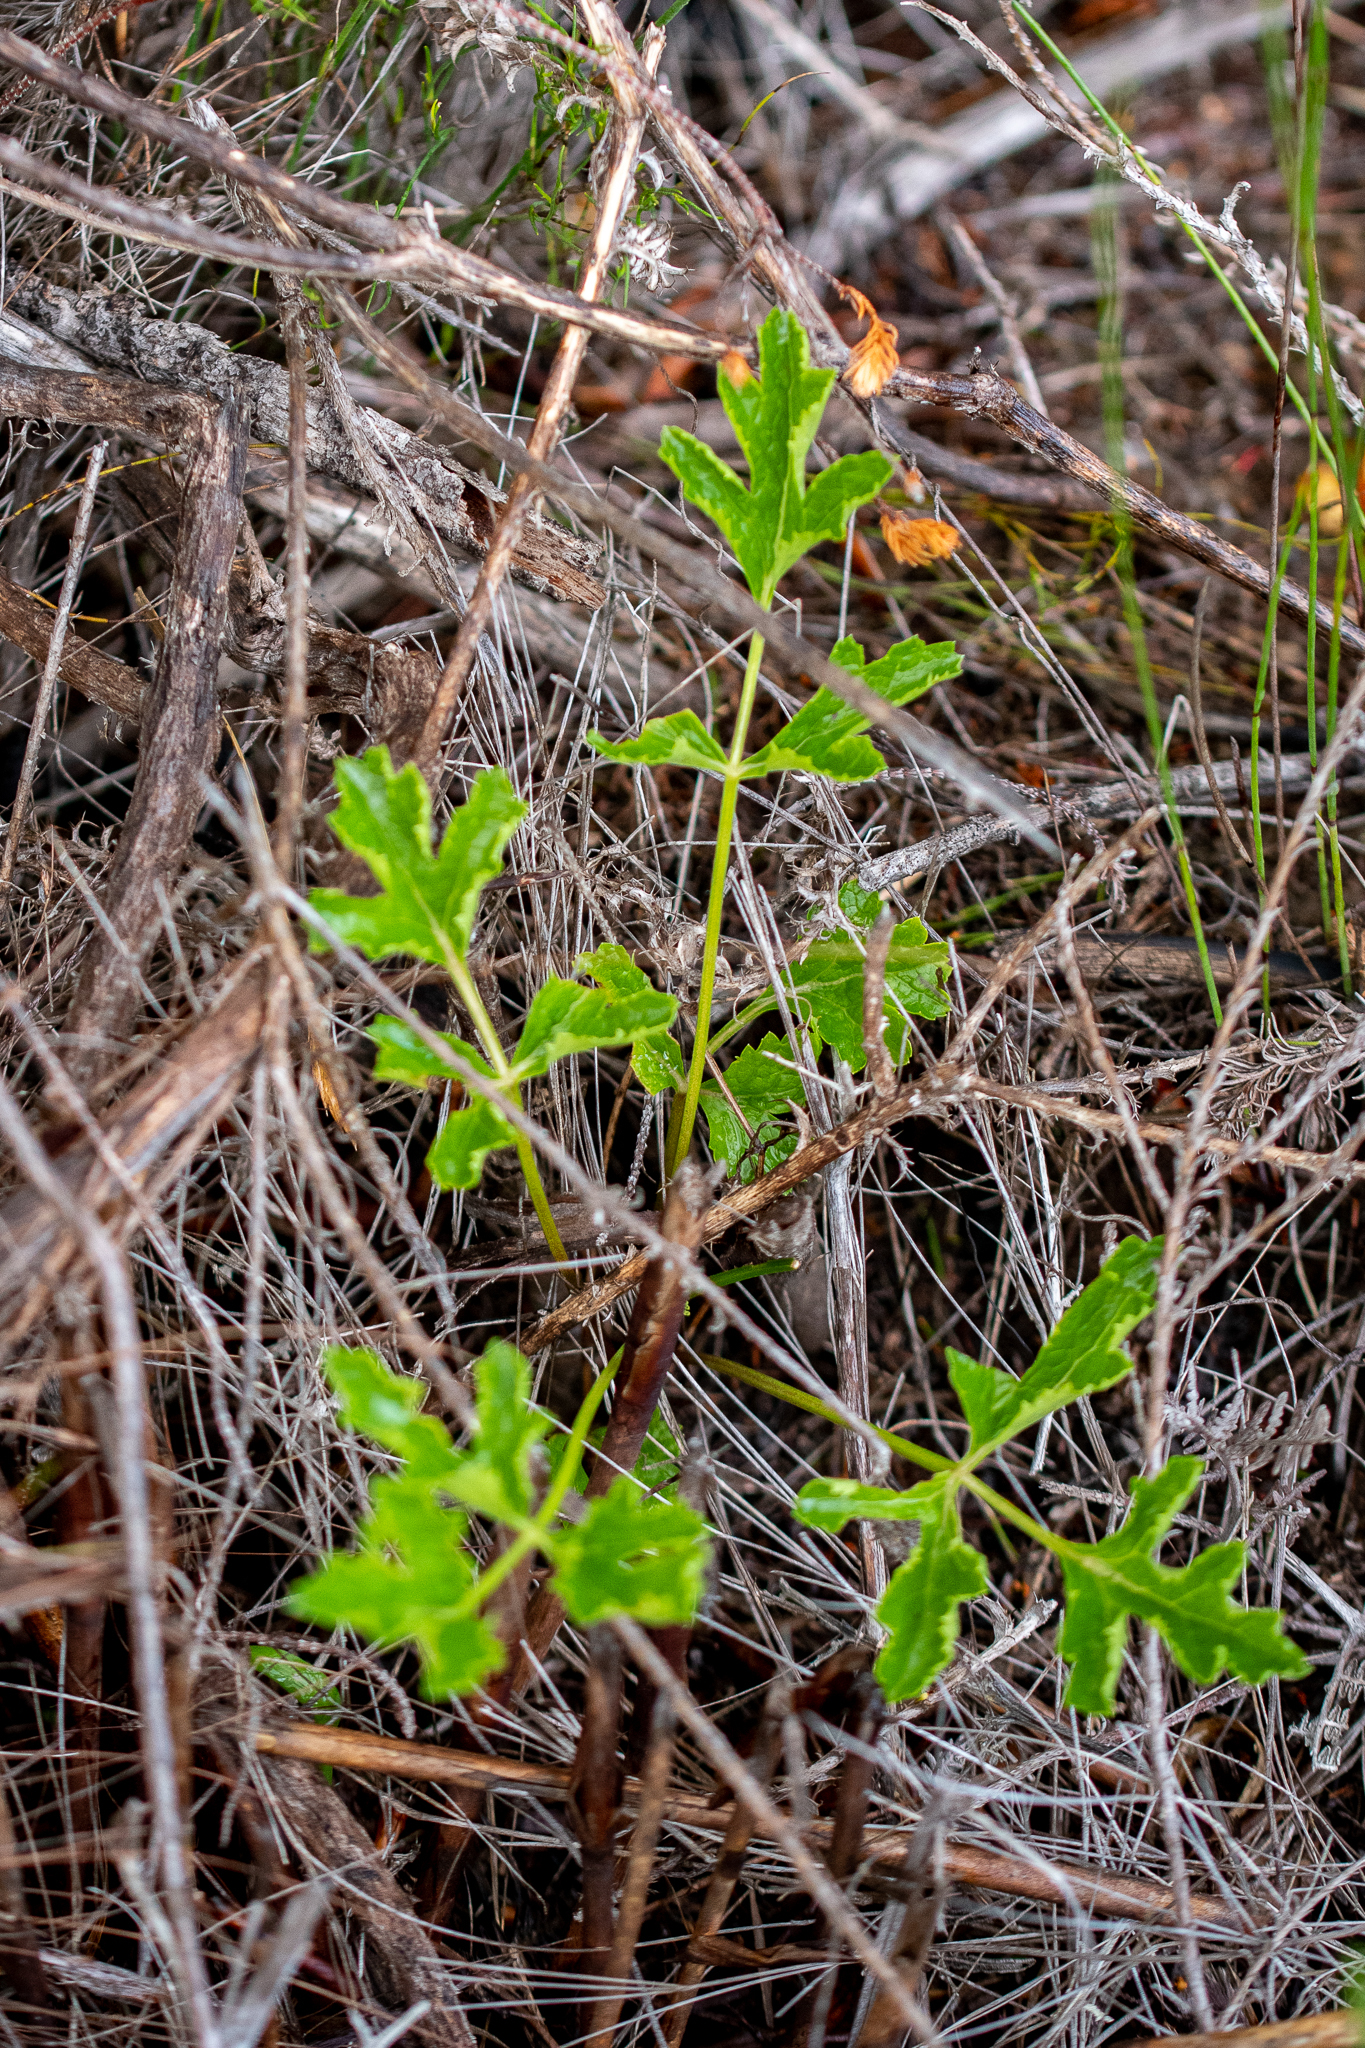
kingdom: Plantae
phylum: Tracheophyta
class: Magnoliopsida
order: Apiales
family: Apiaceae
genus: Glia
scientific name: Glia prolifera
